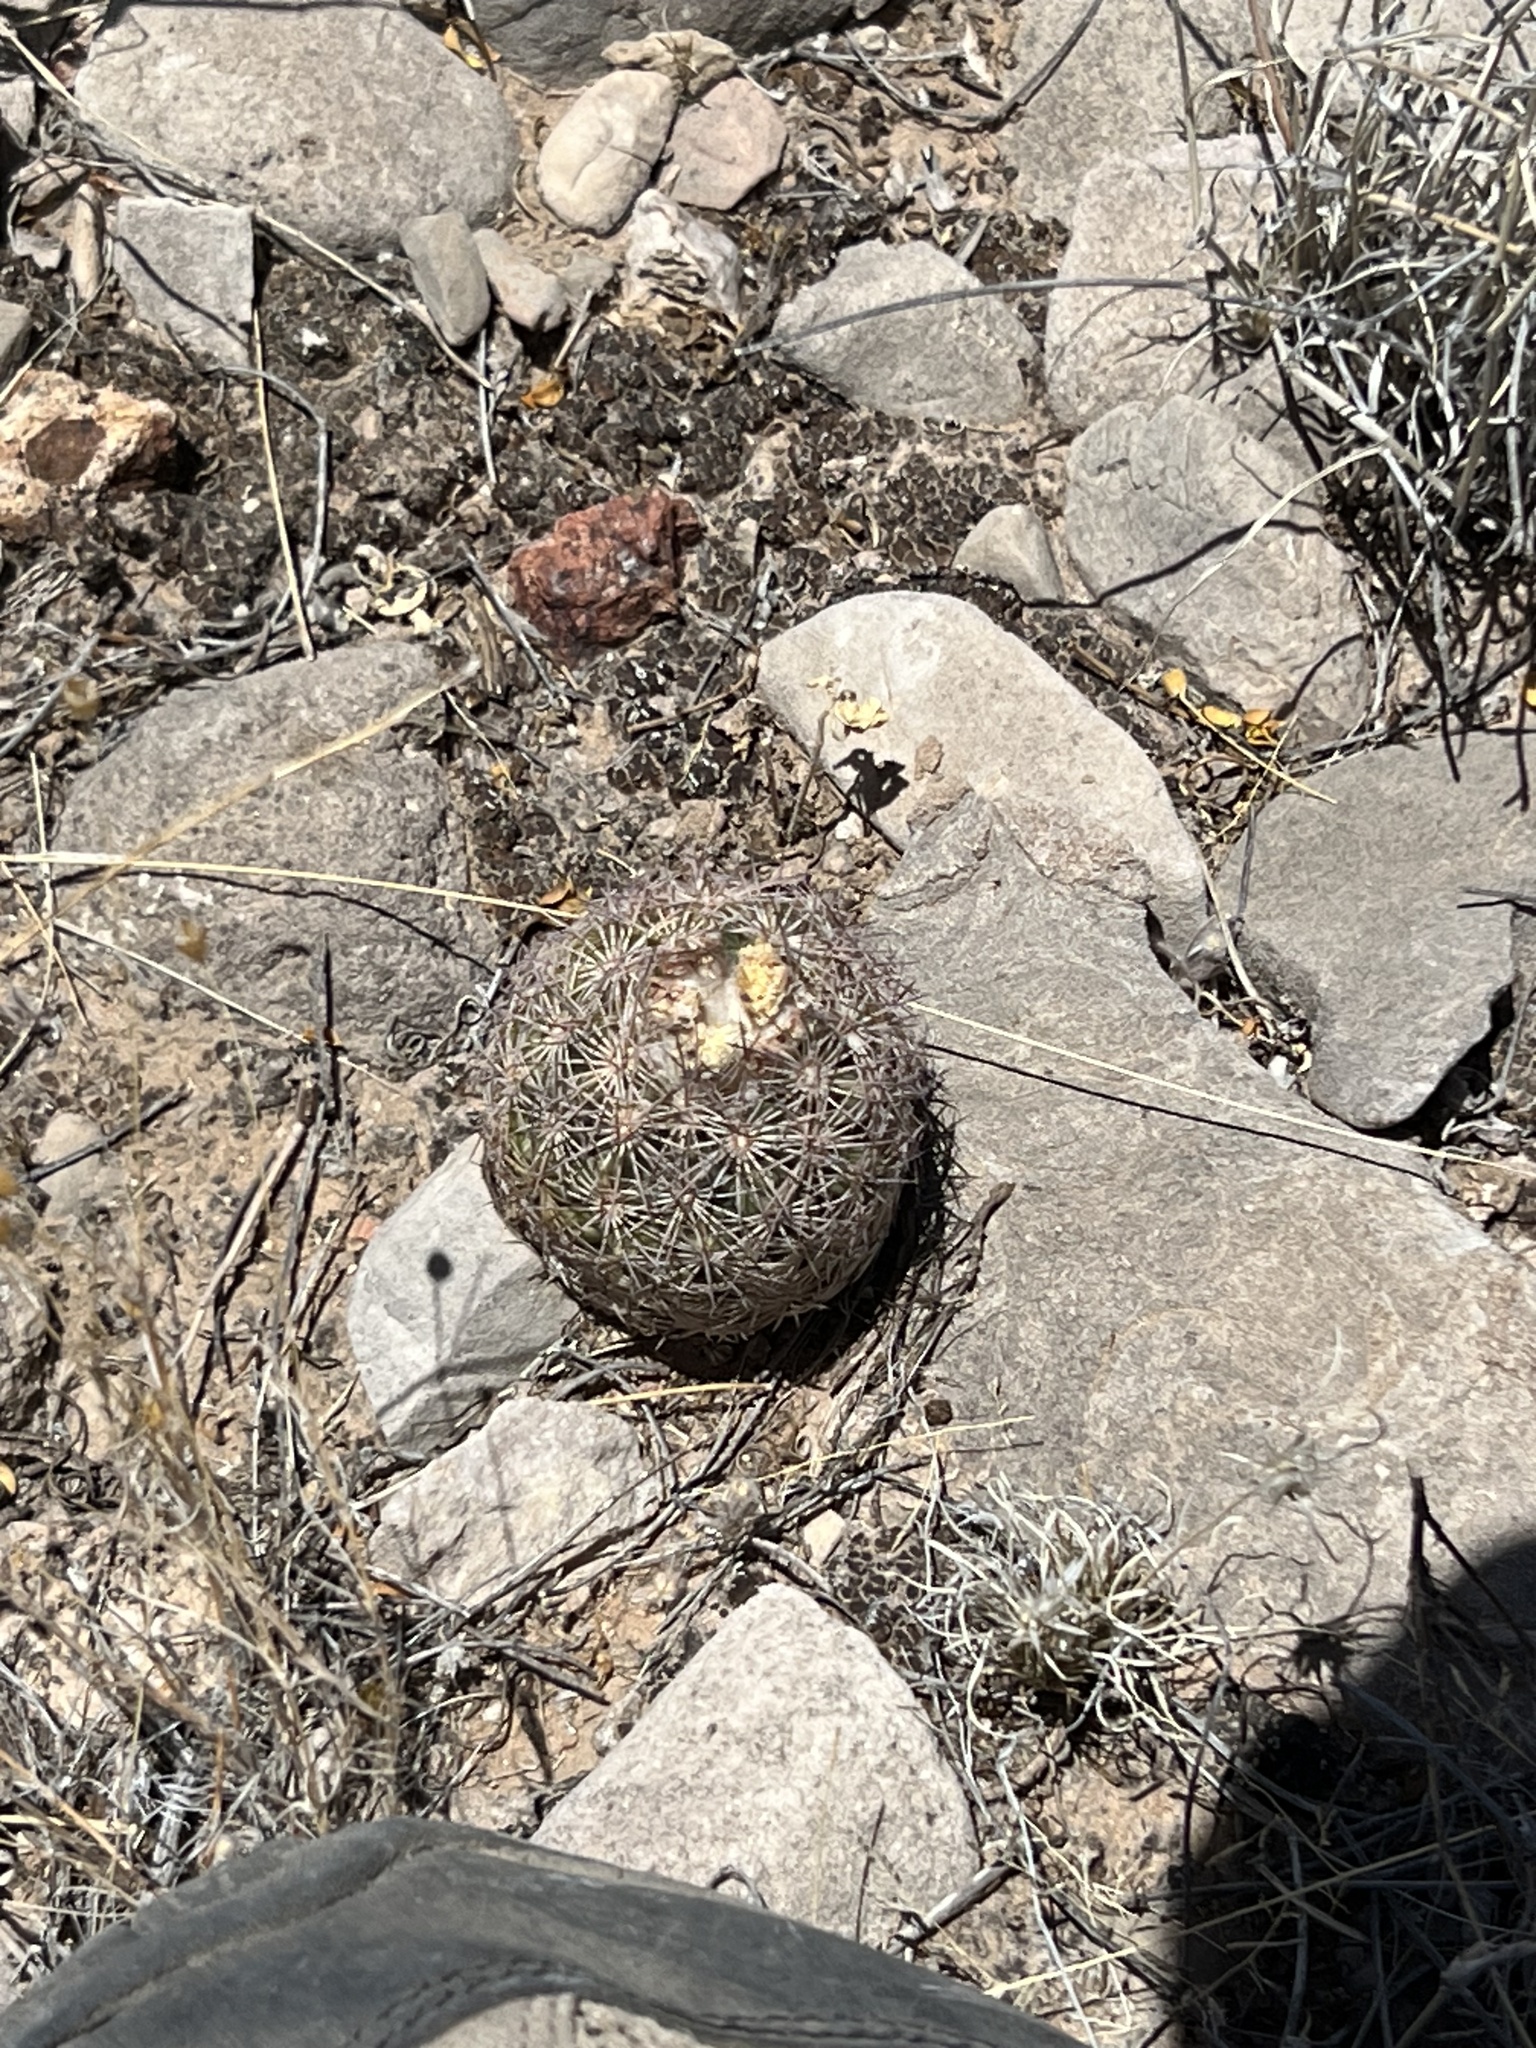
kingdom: Plantae
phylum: Tracheophyta
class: Magnoliopsida
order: Caryophyllales
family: Cactaceae
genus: Sclerocactus
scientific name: Sclerocactus intertextus
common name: White fish-hook cactus
